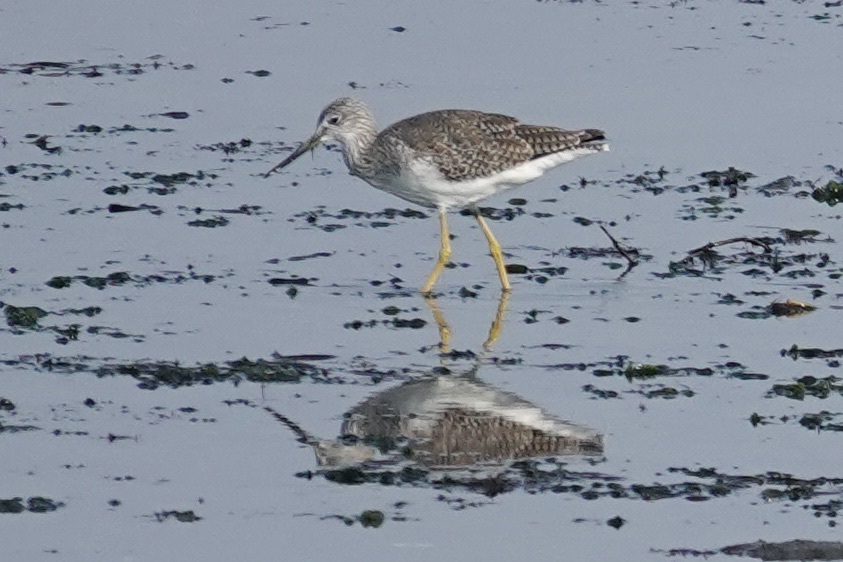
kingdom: Animalia
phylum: Chordata
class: Aves
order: Charadriiformes
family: Scolopacidae
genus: Tringa
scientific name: Tringa melanoleuca
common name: Greater yellowlegs
